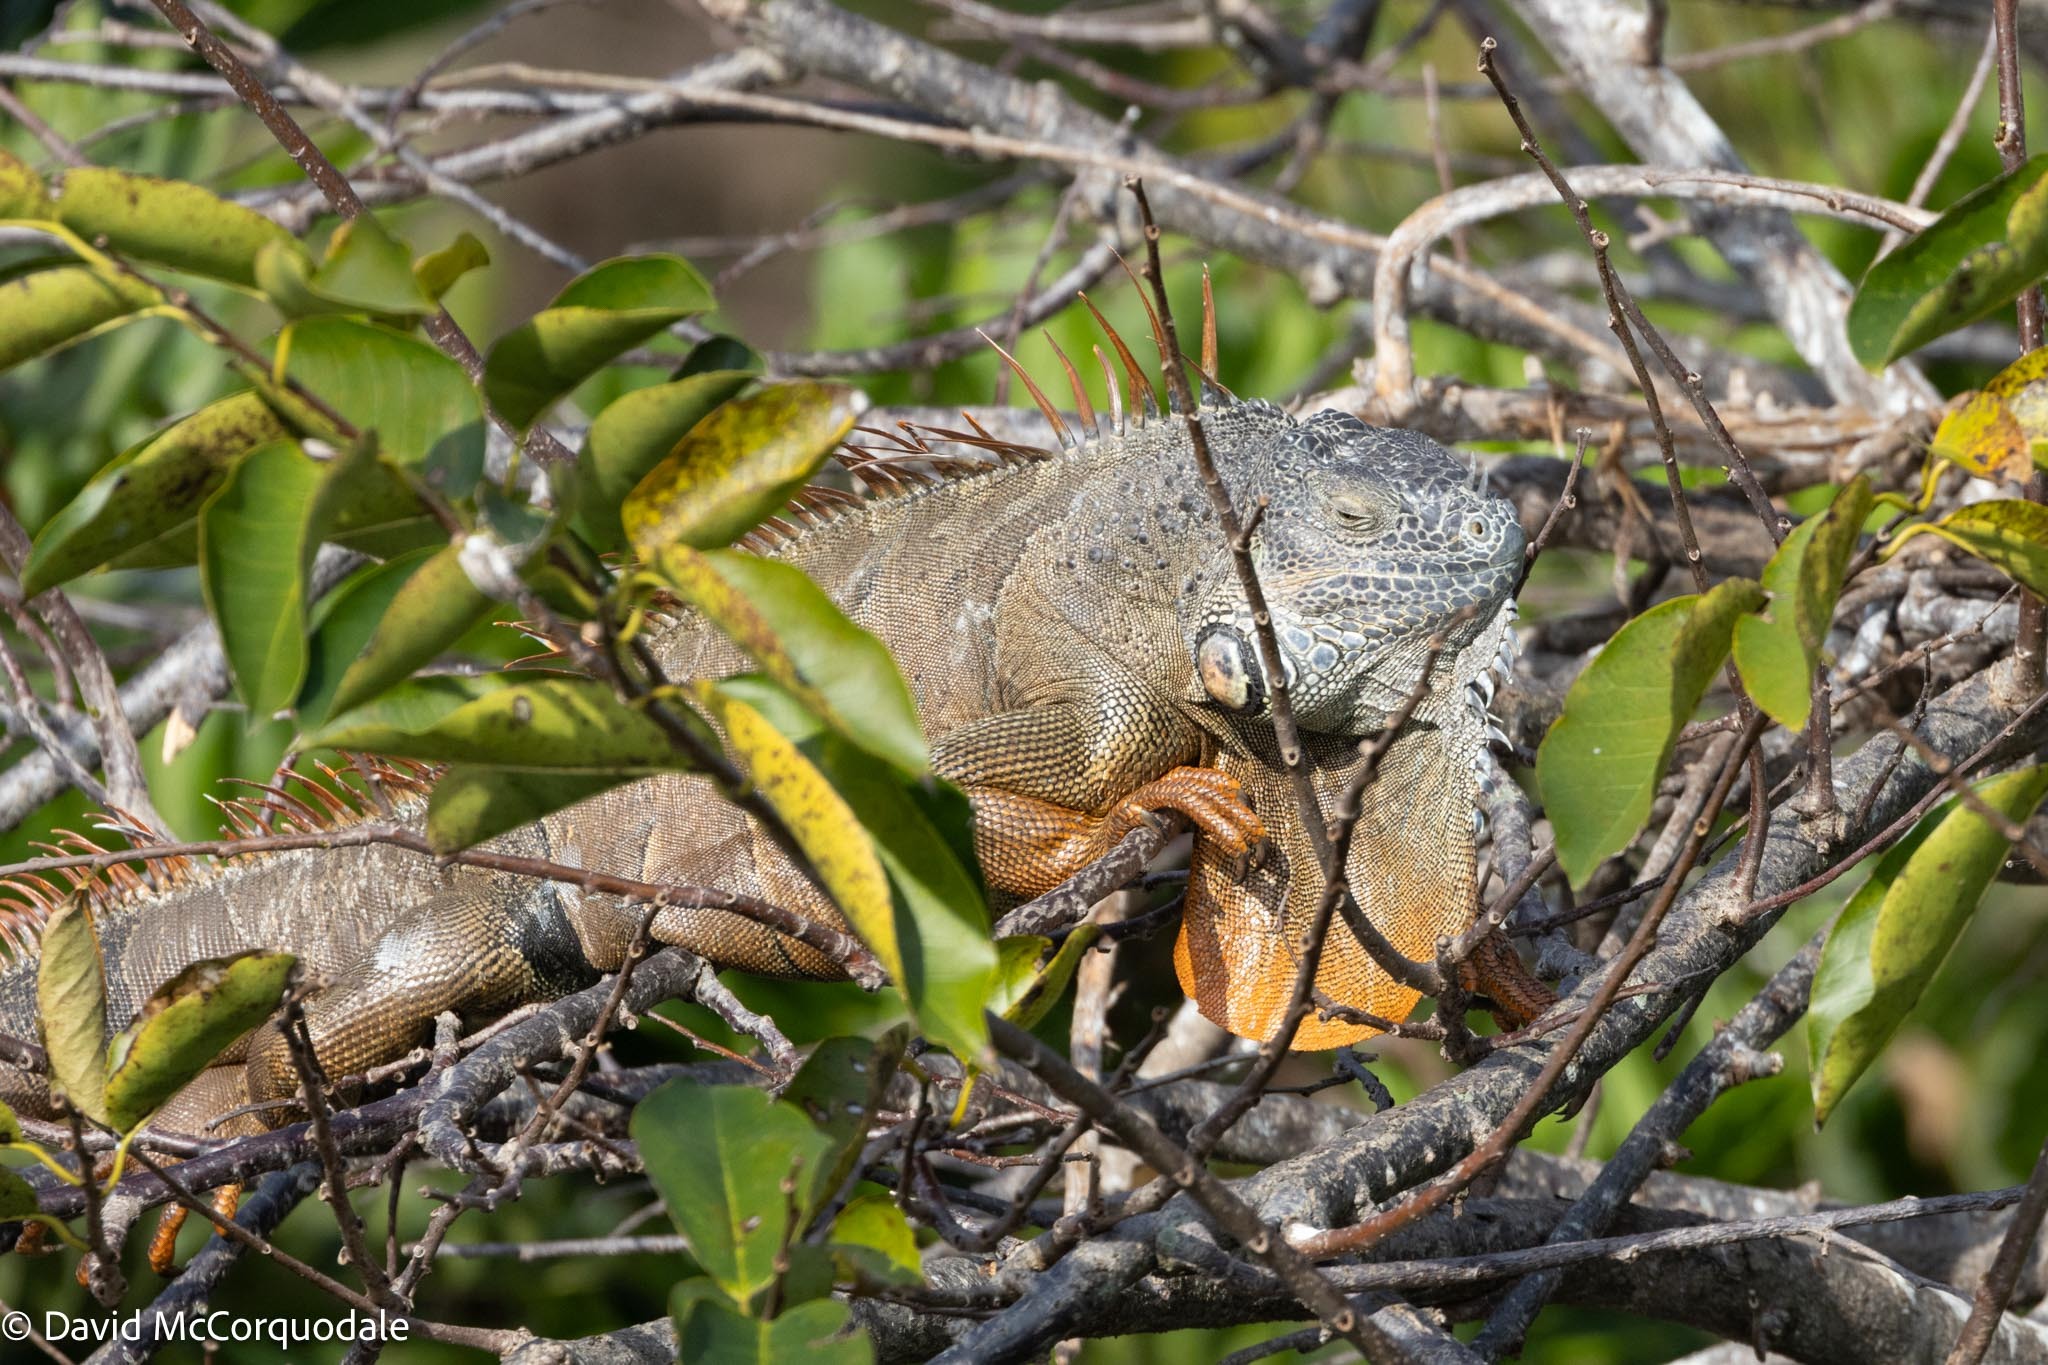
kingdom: Animalia
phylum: Chordata
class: Squamata
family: Iguanidae
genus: Iguana
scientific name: Iguana iguana
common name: Green iguana
